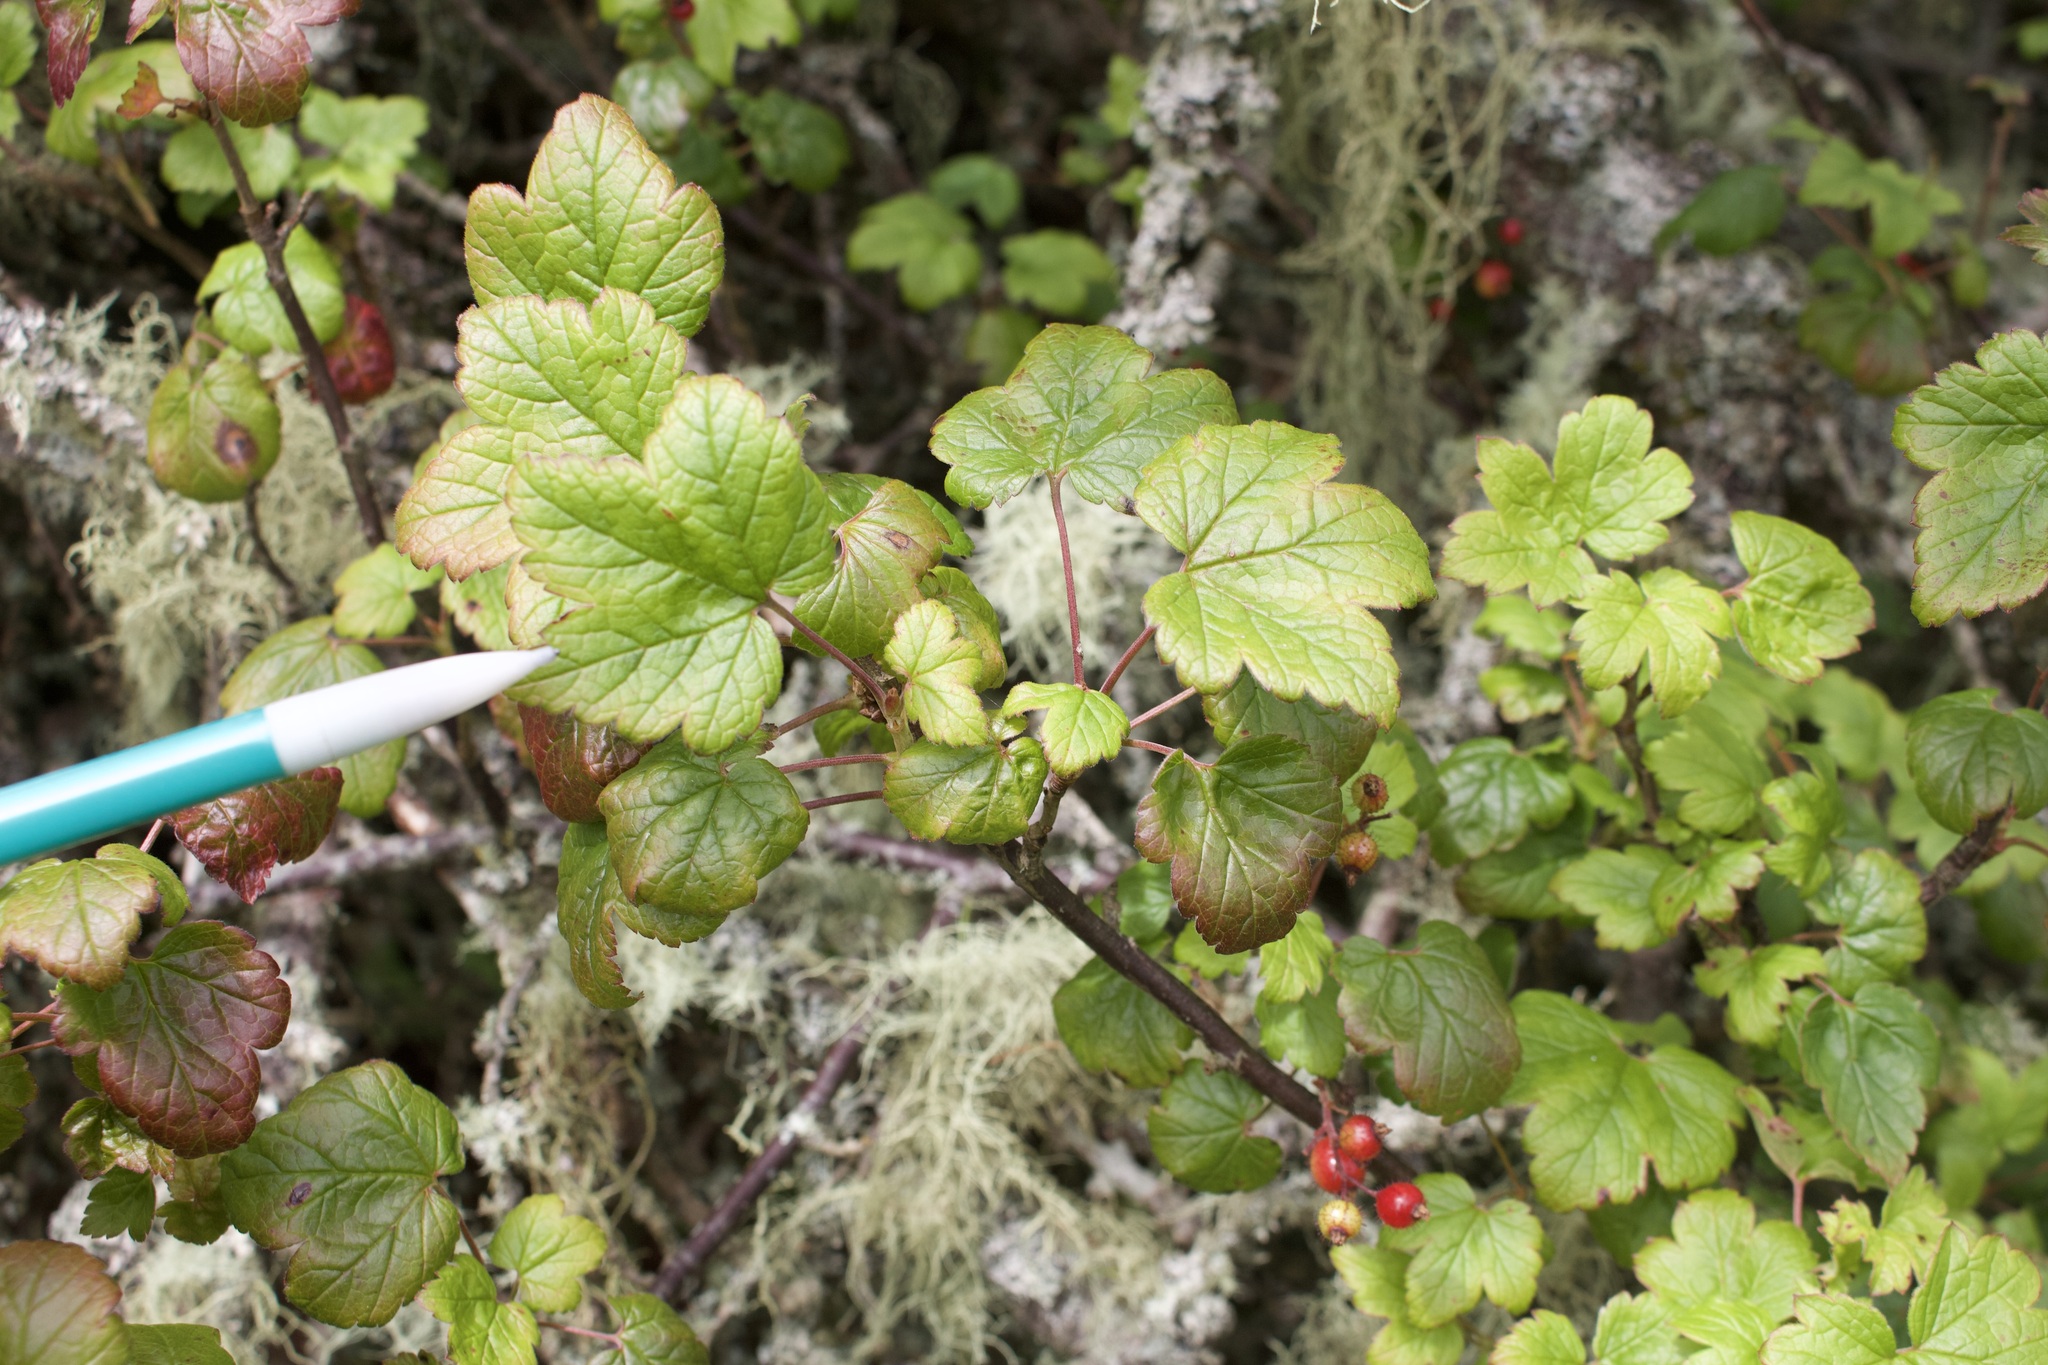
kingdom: Plantae
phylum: Tracheophyta
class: Magnoliopsida
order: Saxifragales
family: Grossulariaceae
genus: Ribes
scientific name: Ribes glandulosum
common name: Skunk currant
